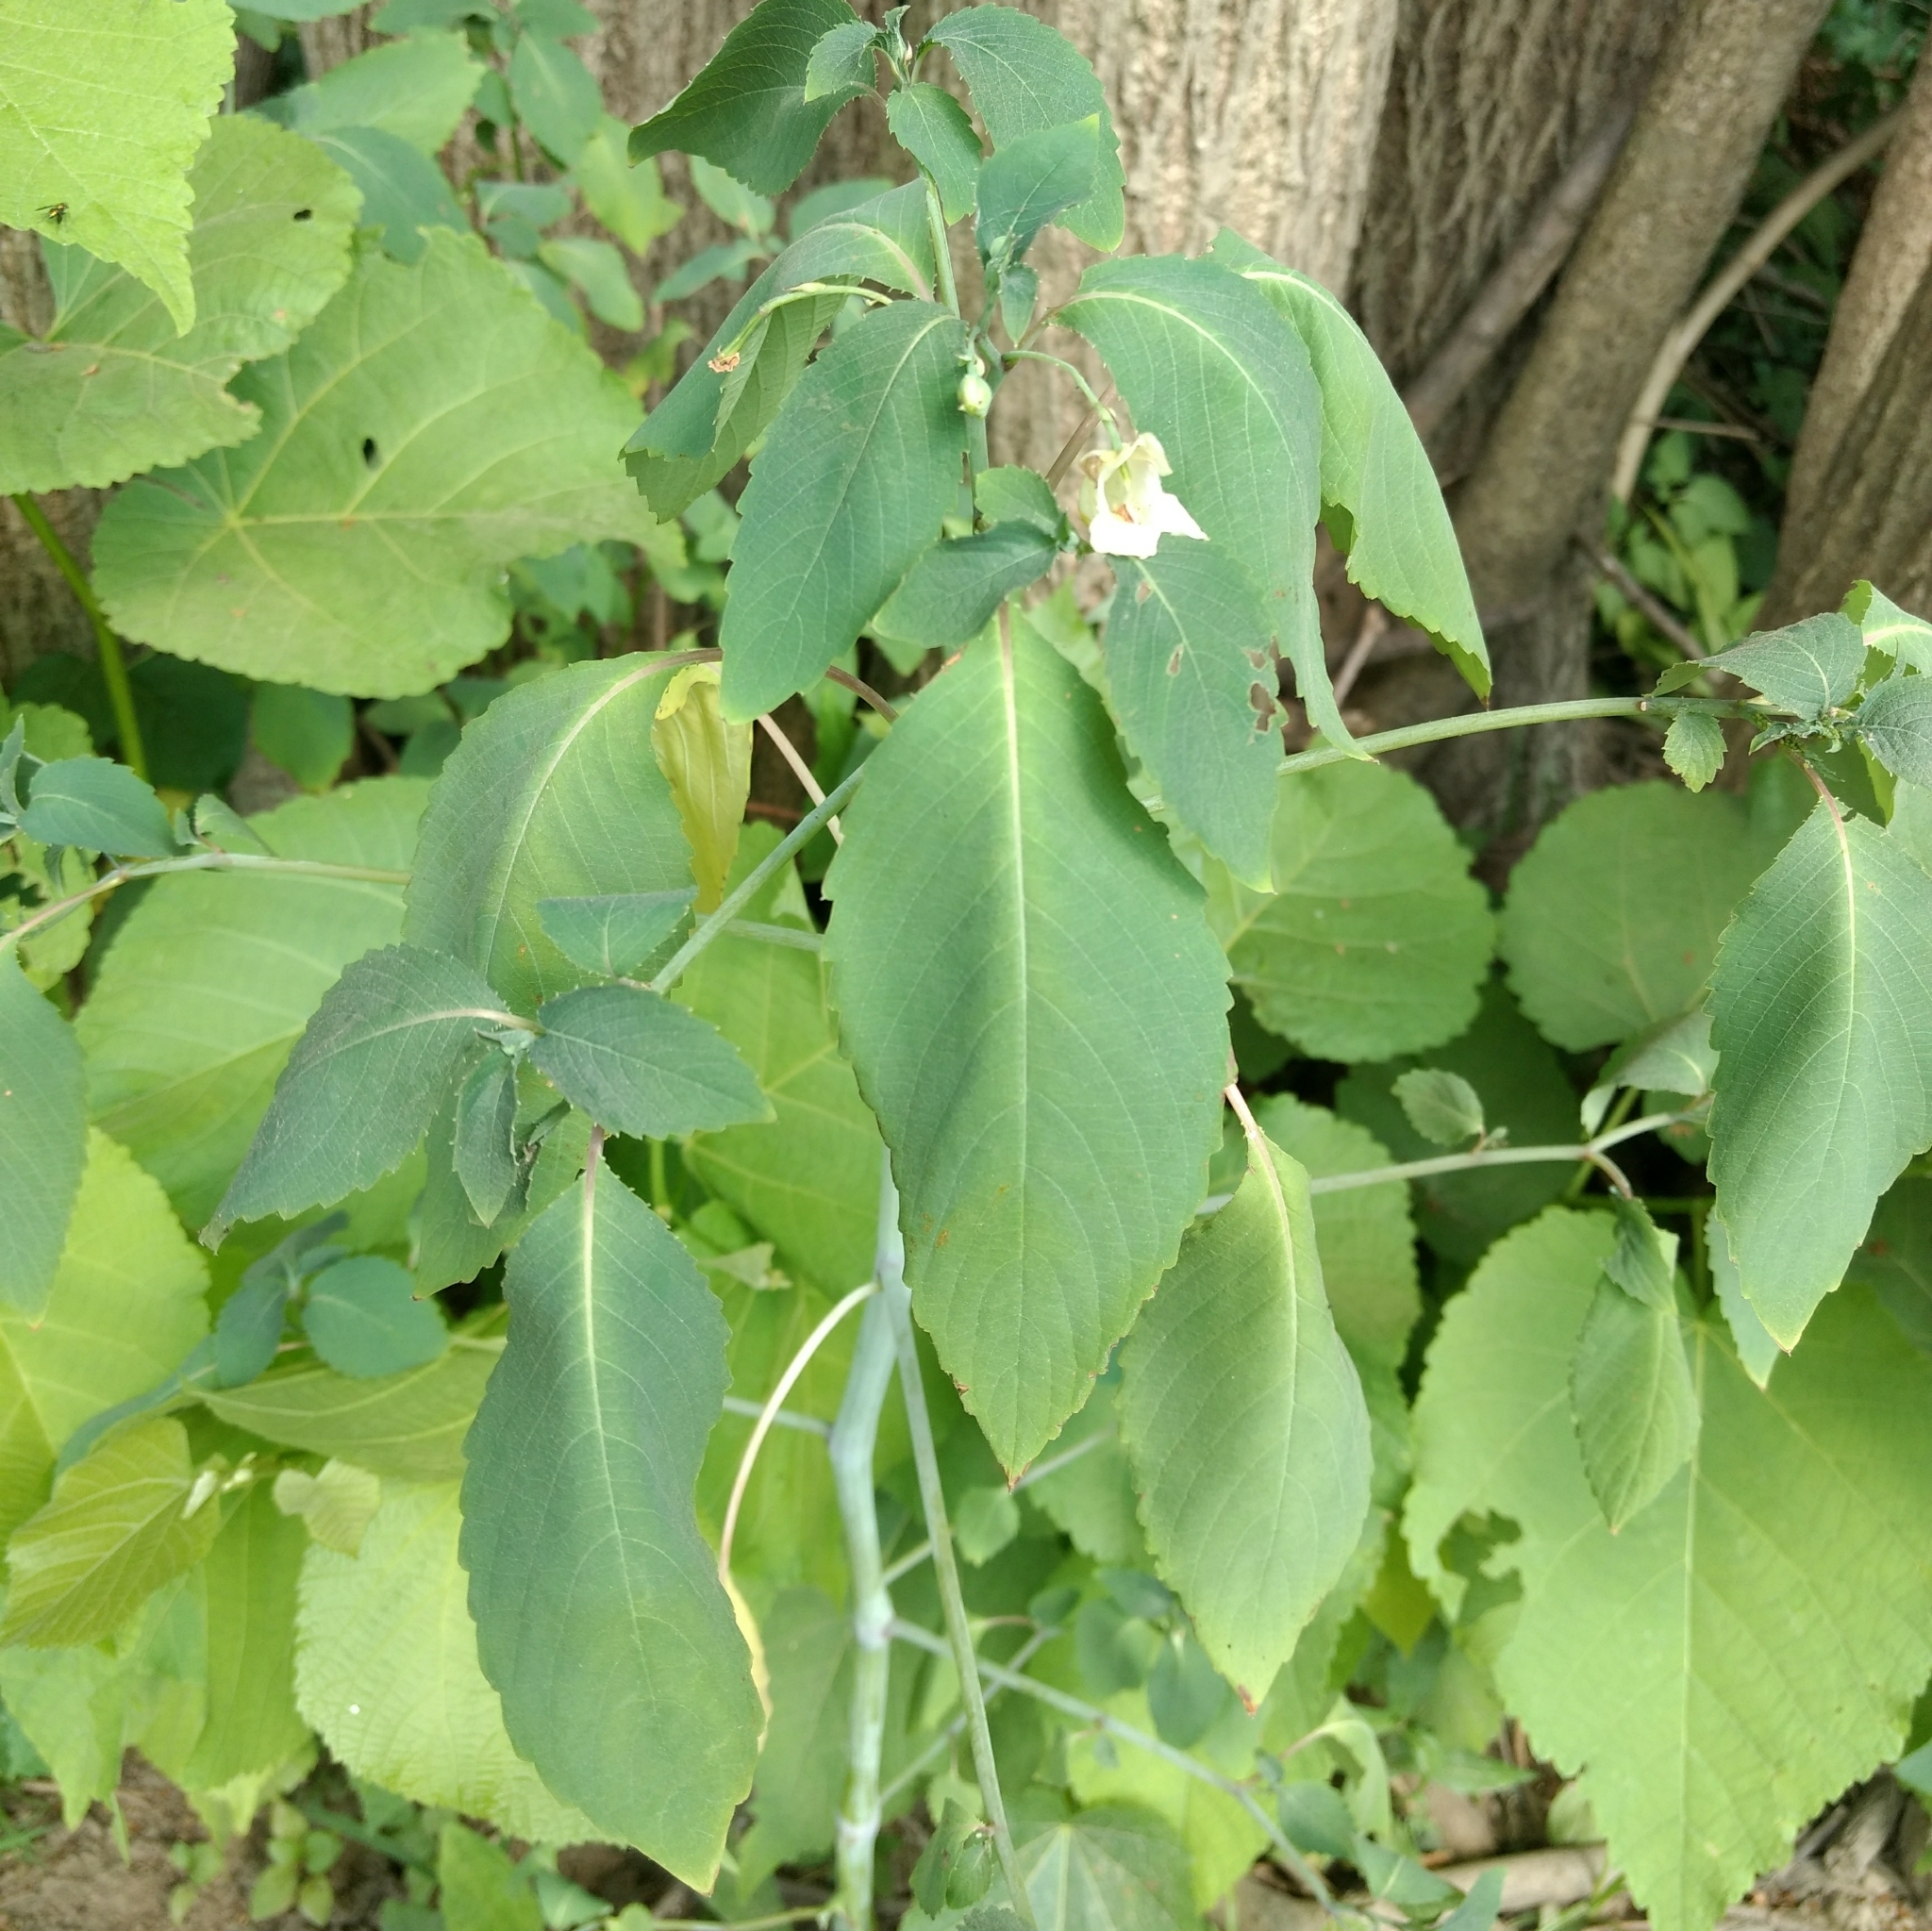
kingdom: Plantae
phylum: Tracheophyta
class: Magnoliopsida
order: Ericales
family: Balsaminaceae
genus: Impatiens
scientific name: Impatiens pallida
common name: Pale snapweed
